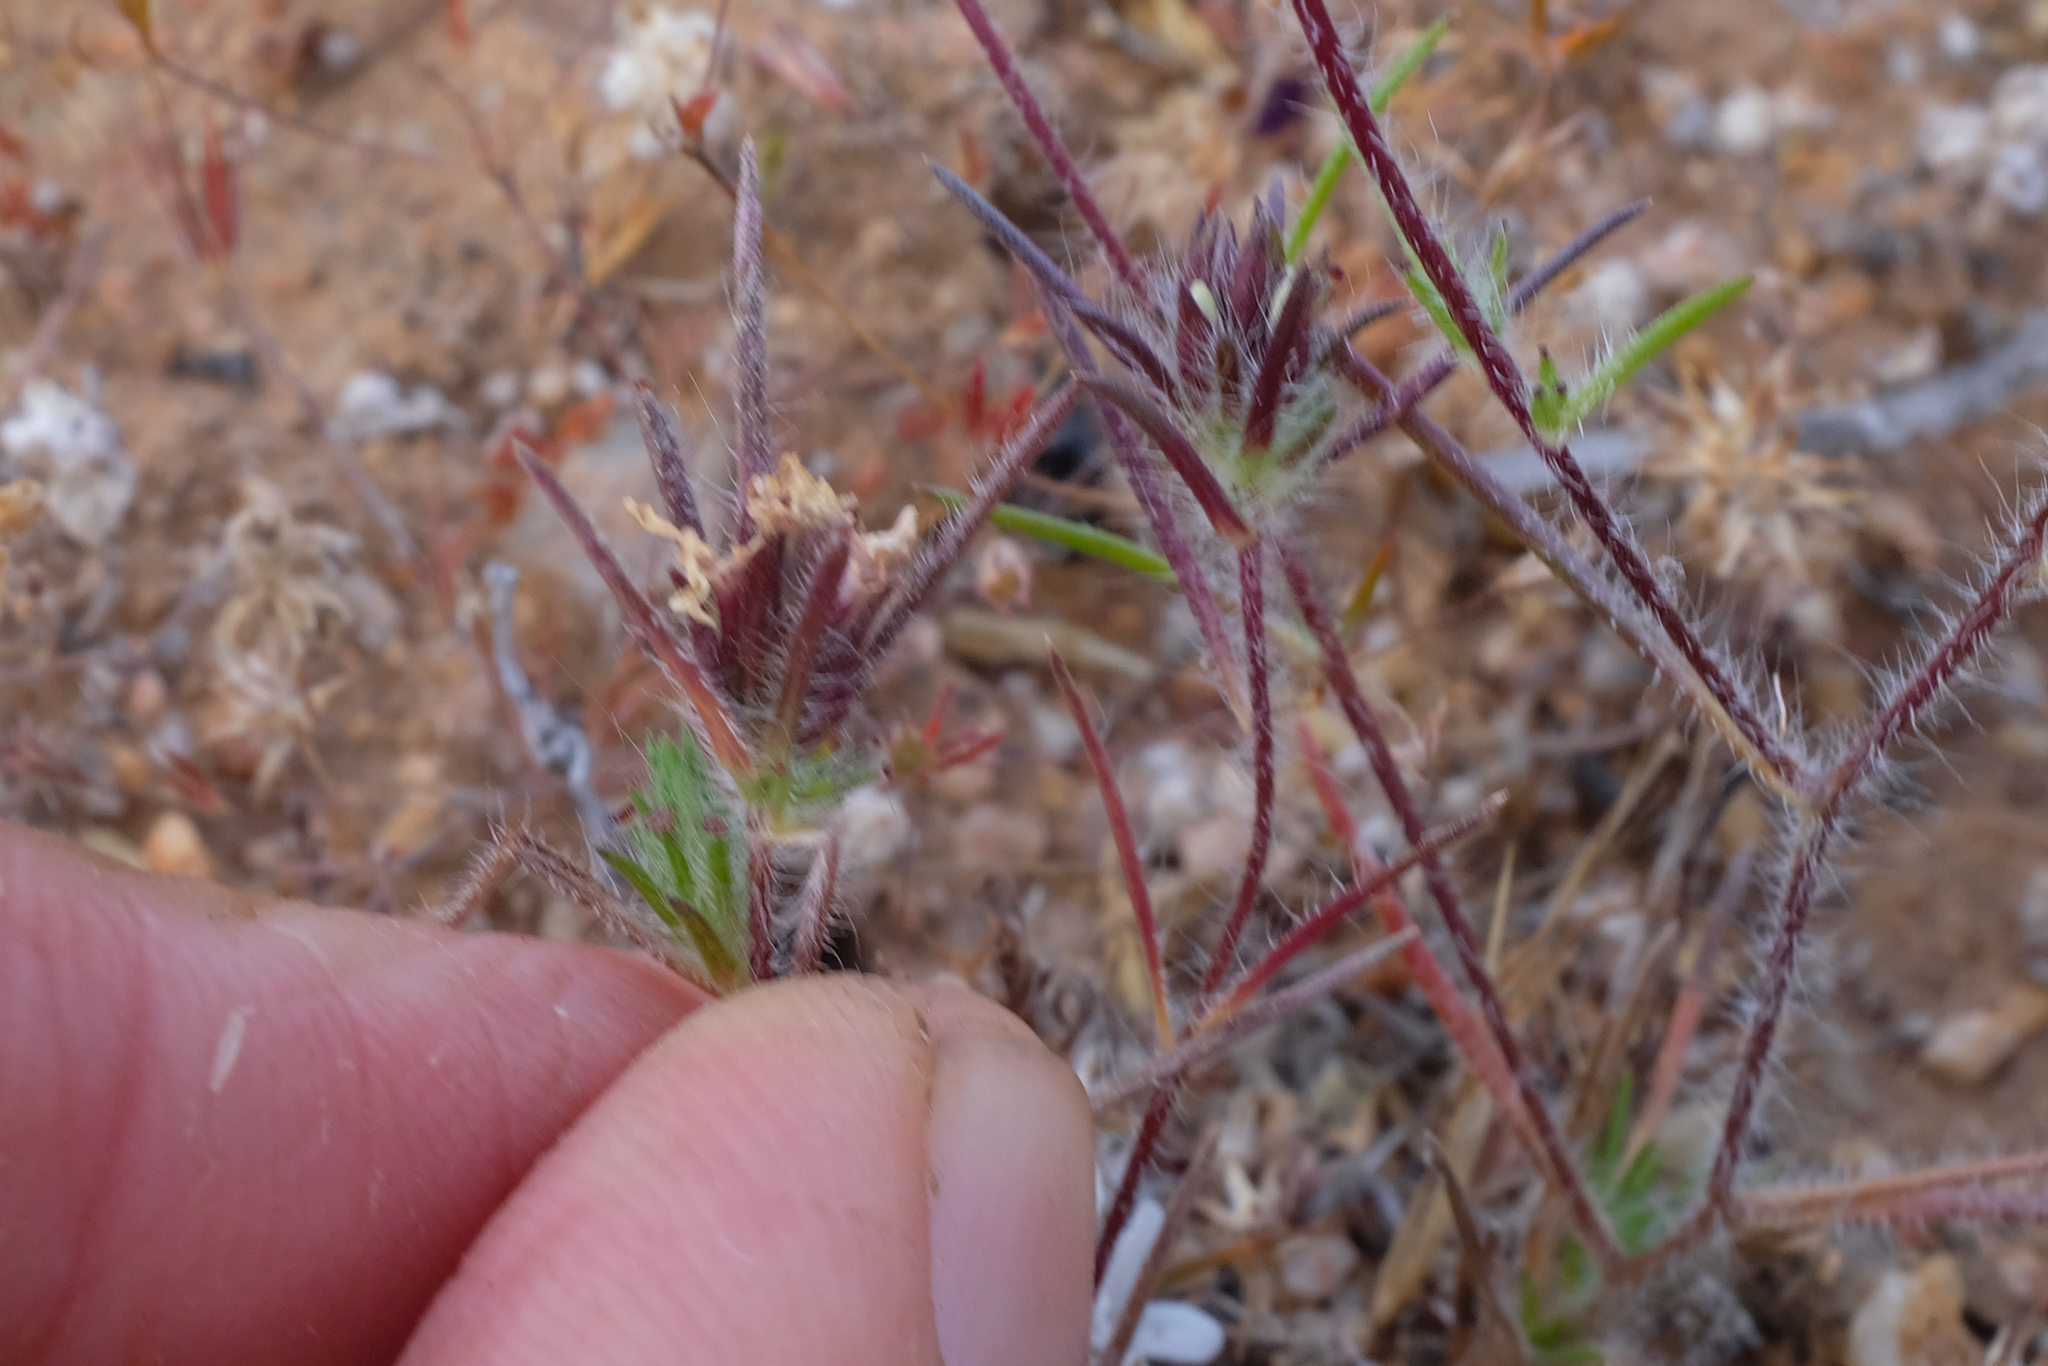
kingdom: Plantae
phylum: Tracheophyta
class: Magnoliopsida
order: Asterales
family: Asteraceae
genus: Calycadenia
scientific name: Calycadenia villosa
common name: Dwarf calycadenia
